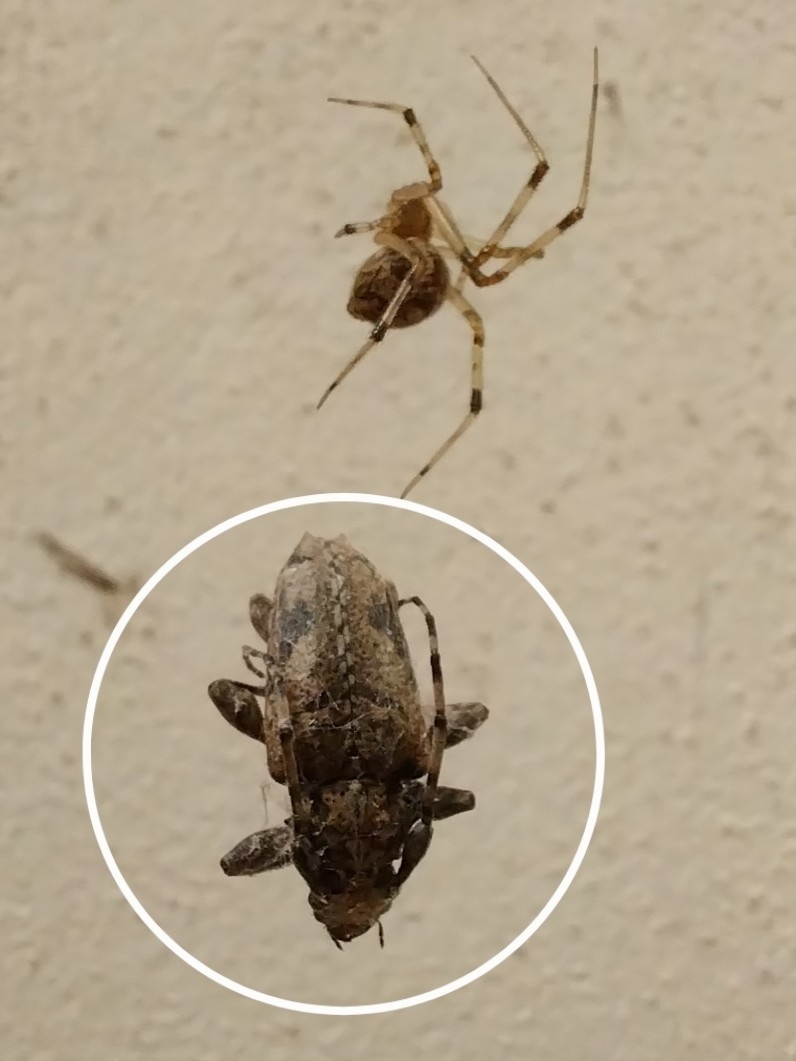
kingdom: Animalia
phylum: Arthropoda
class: Insecta
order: Coleoptera
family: Cerambycidae
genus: Psapharochrus
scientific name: Psapharochrus jaspideus
